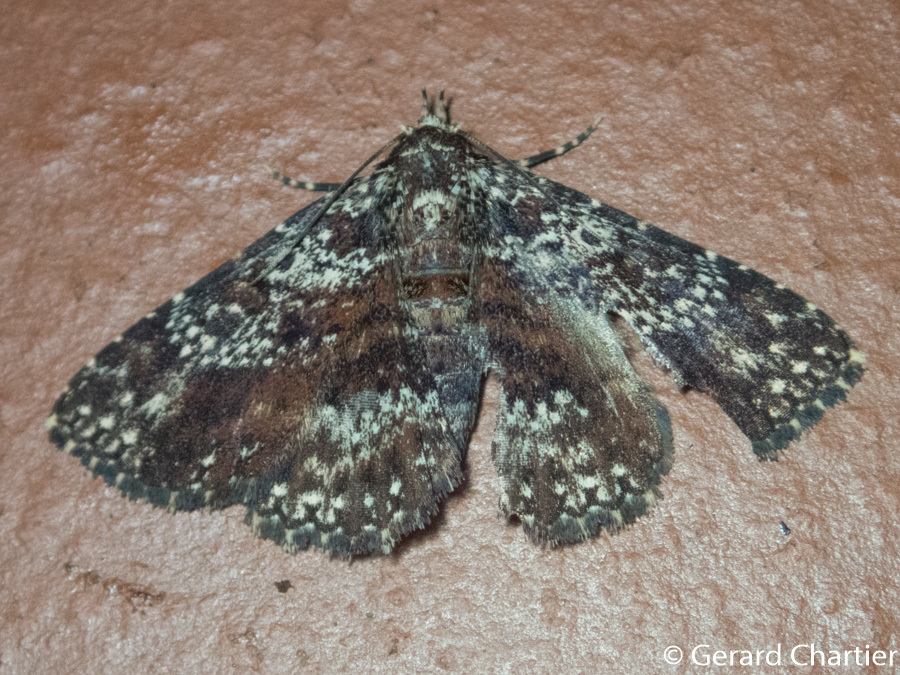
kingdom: Animalia
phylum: Arthropoda
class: Insecta
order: Lepidoptera
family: Erebidae
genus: Caduca
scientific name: Caduca albopunctata
